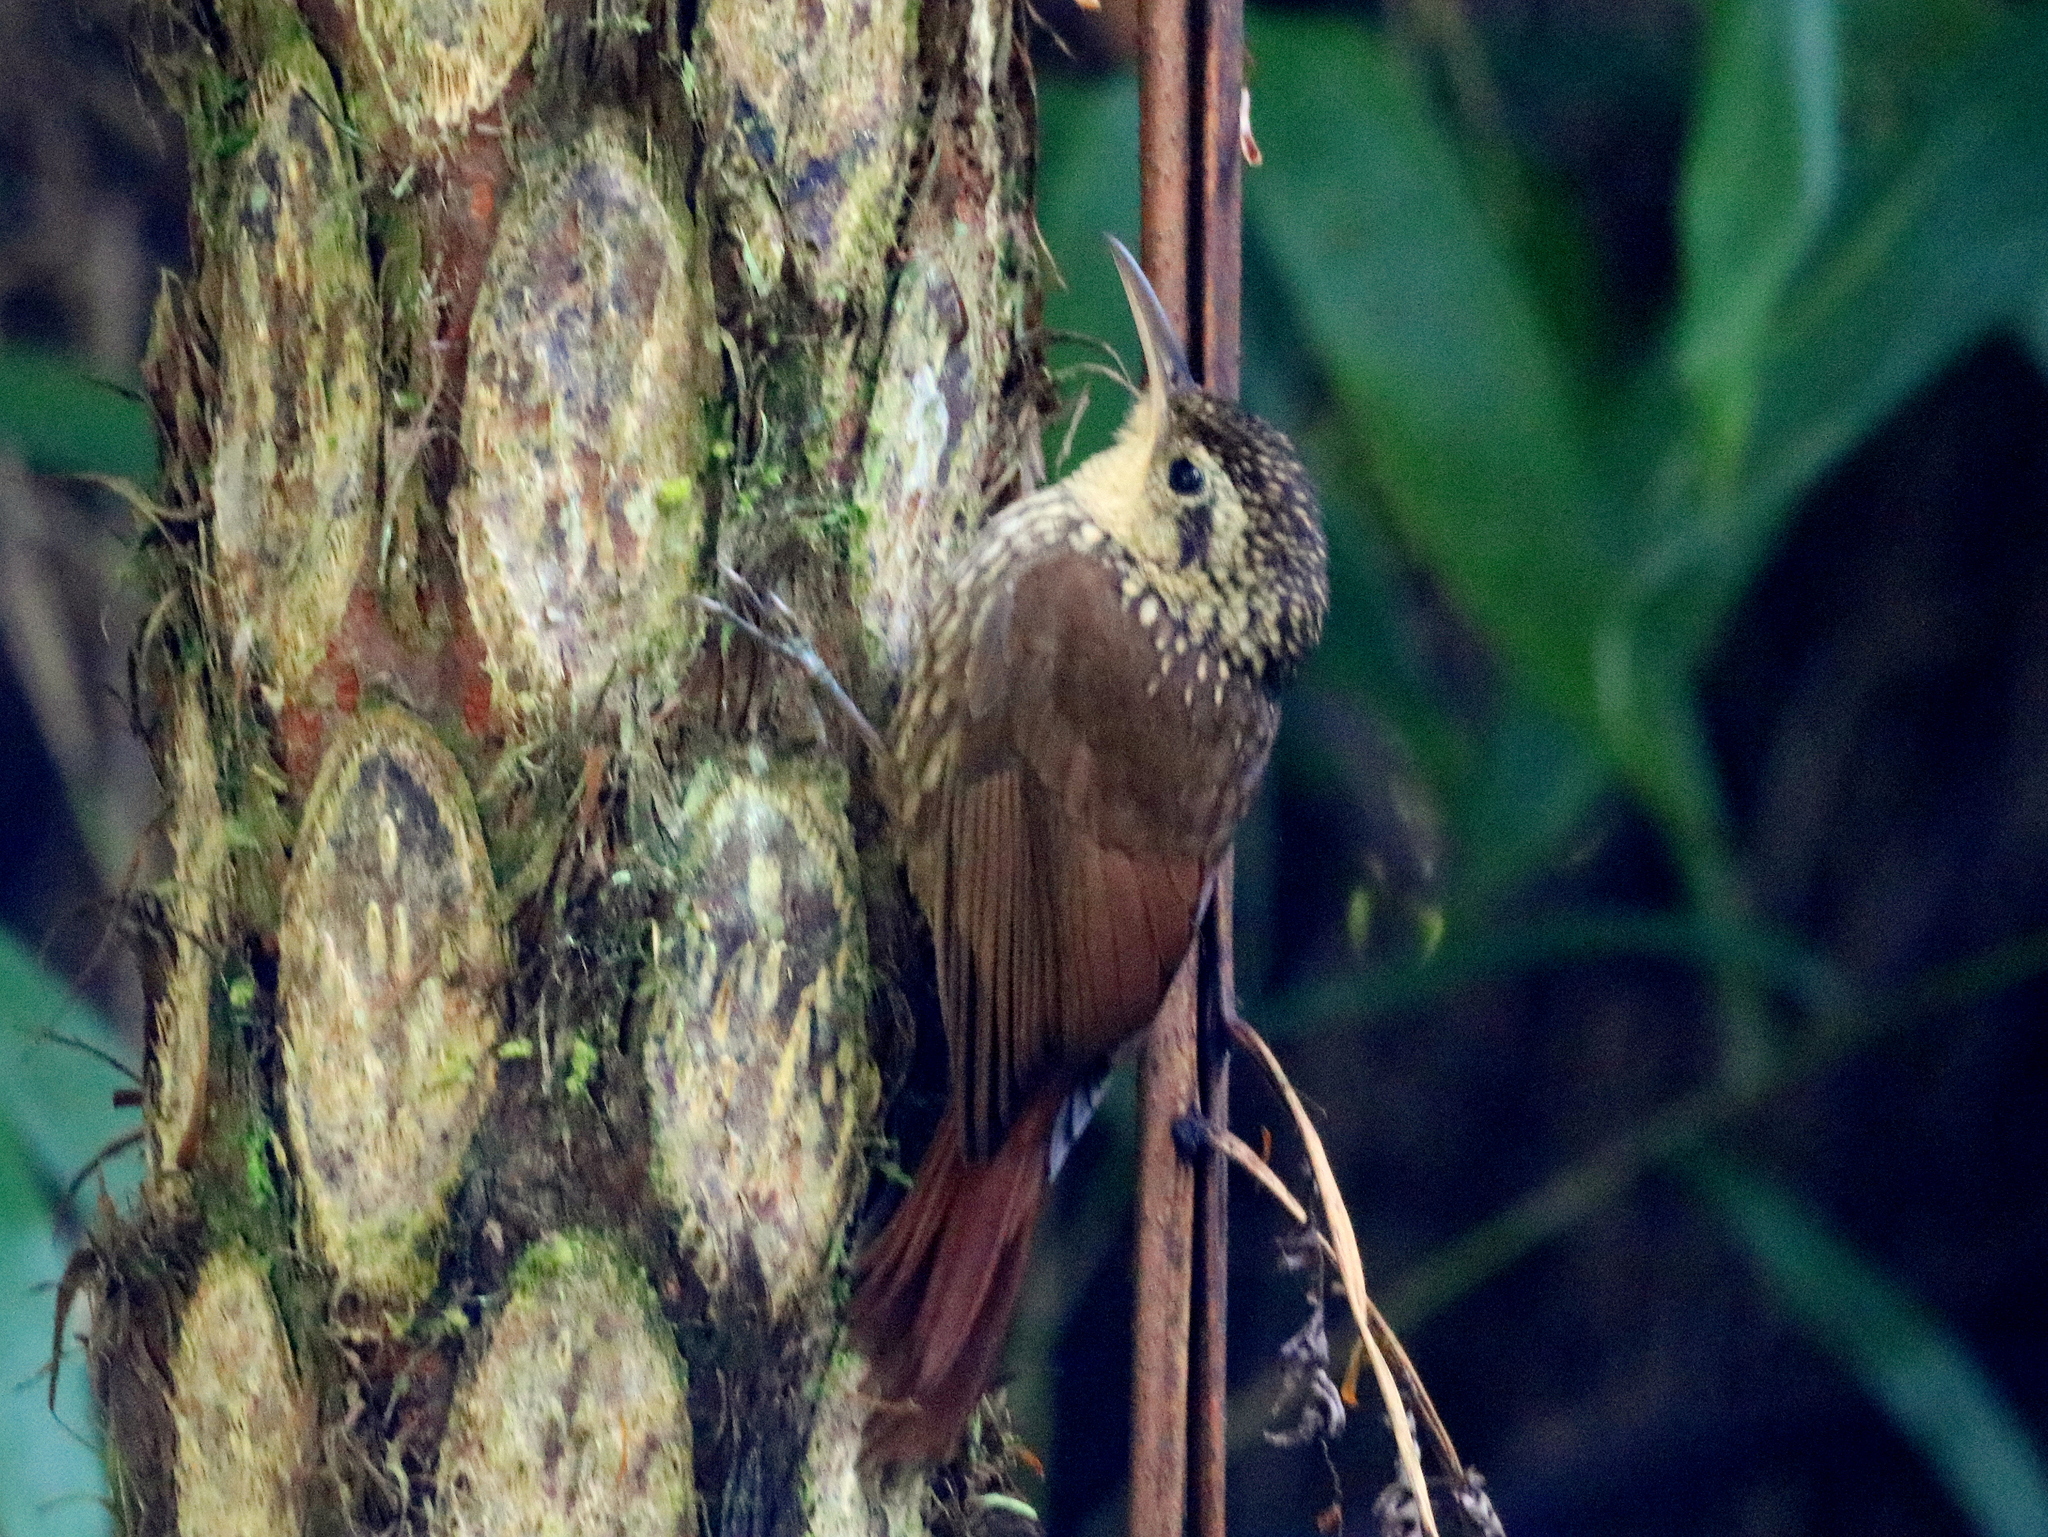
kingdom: Animalia
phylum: Chordata
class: Aves
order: Passeriformes
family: Furnariidae
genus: Xiphorhynchus
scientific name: Xiphorhynchus fuscus
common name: Lesser woodcreeper
